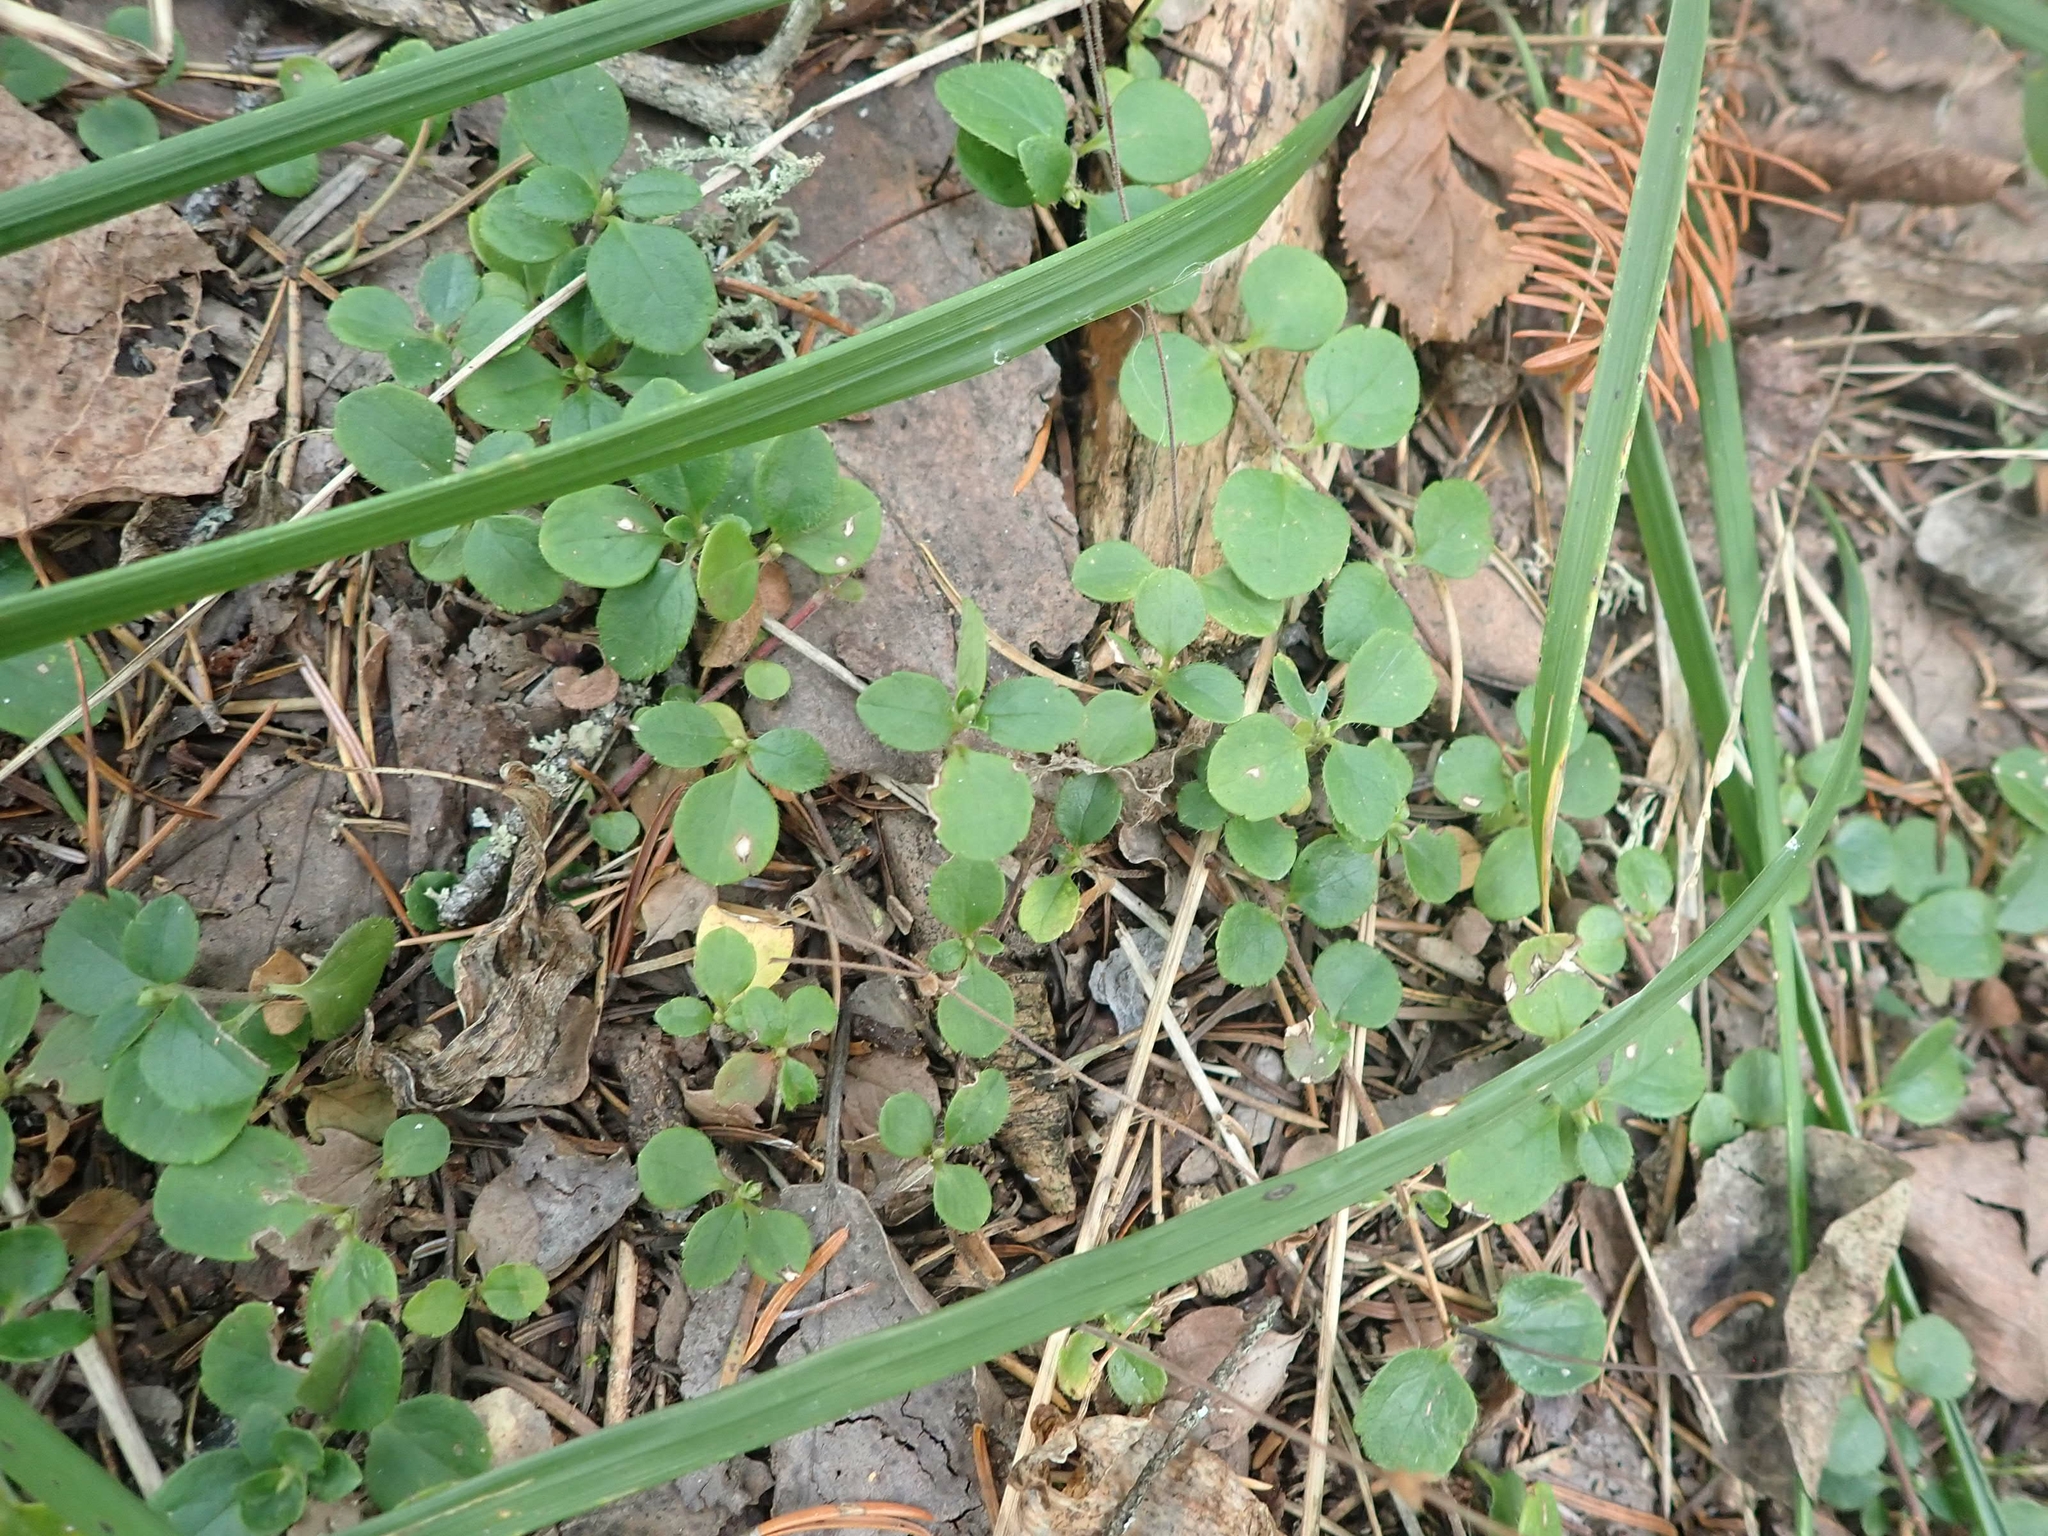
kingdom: Plantae
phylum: Tracheophyta
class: Magnoliopsida
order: Dipsacales
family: Caprifoliaceae
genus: Linnaea
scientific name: Linnaea borealis
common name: Twinflower
